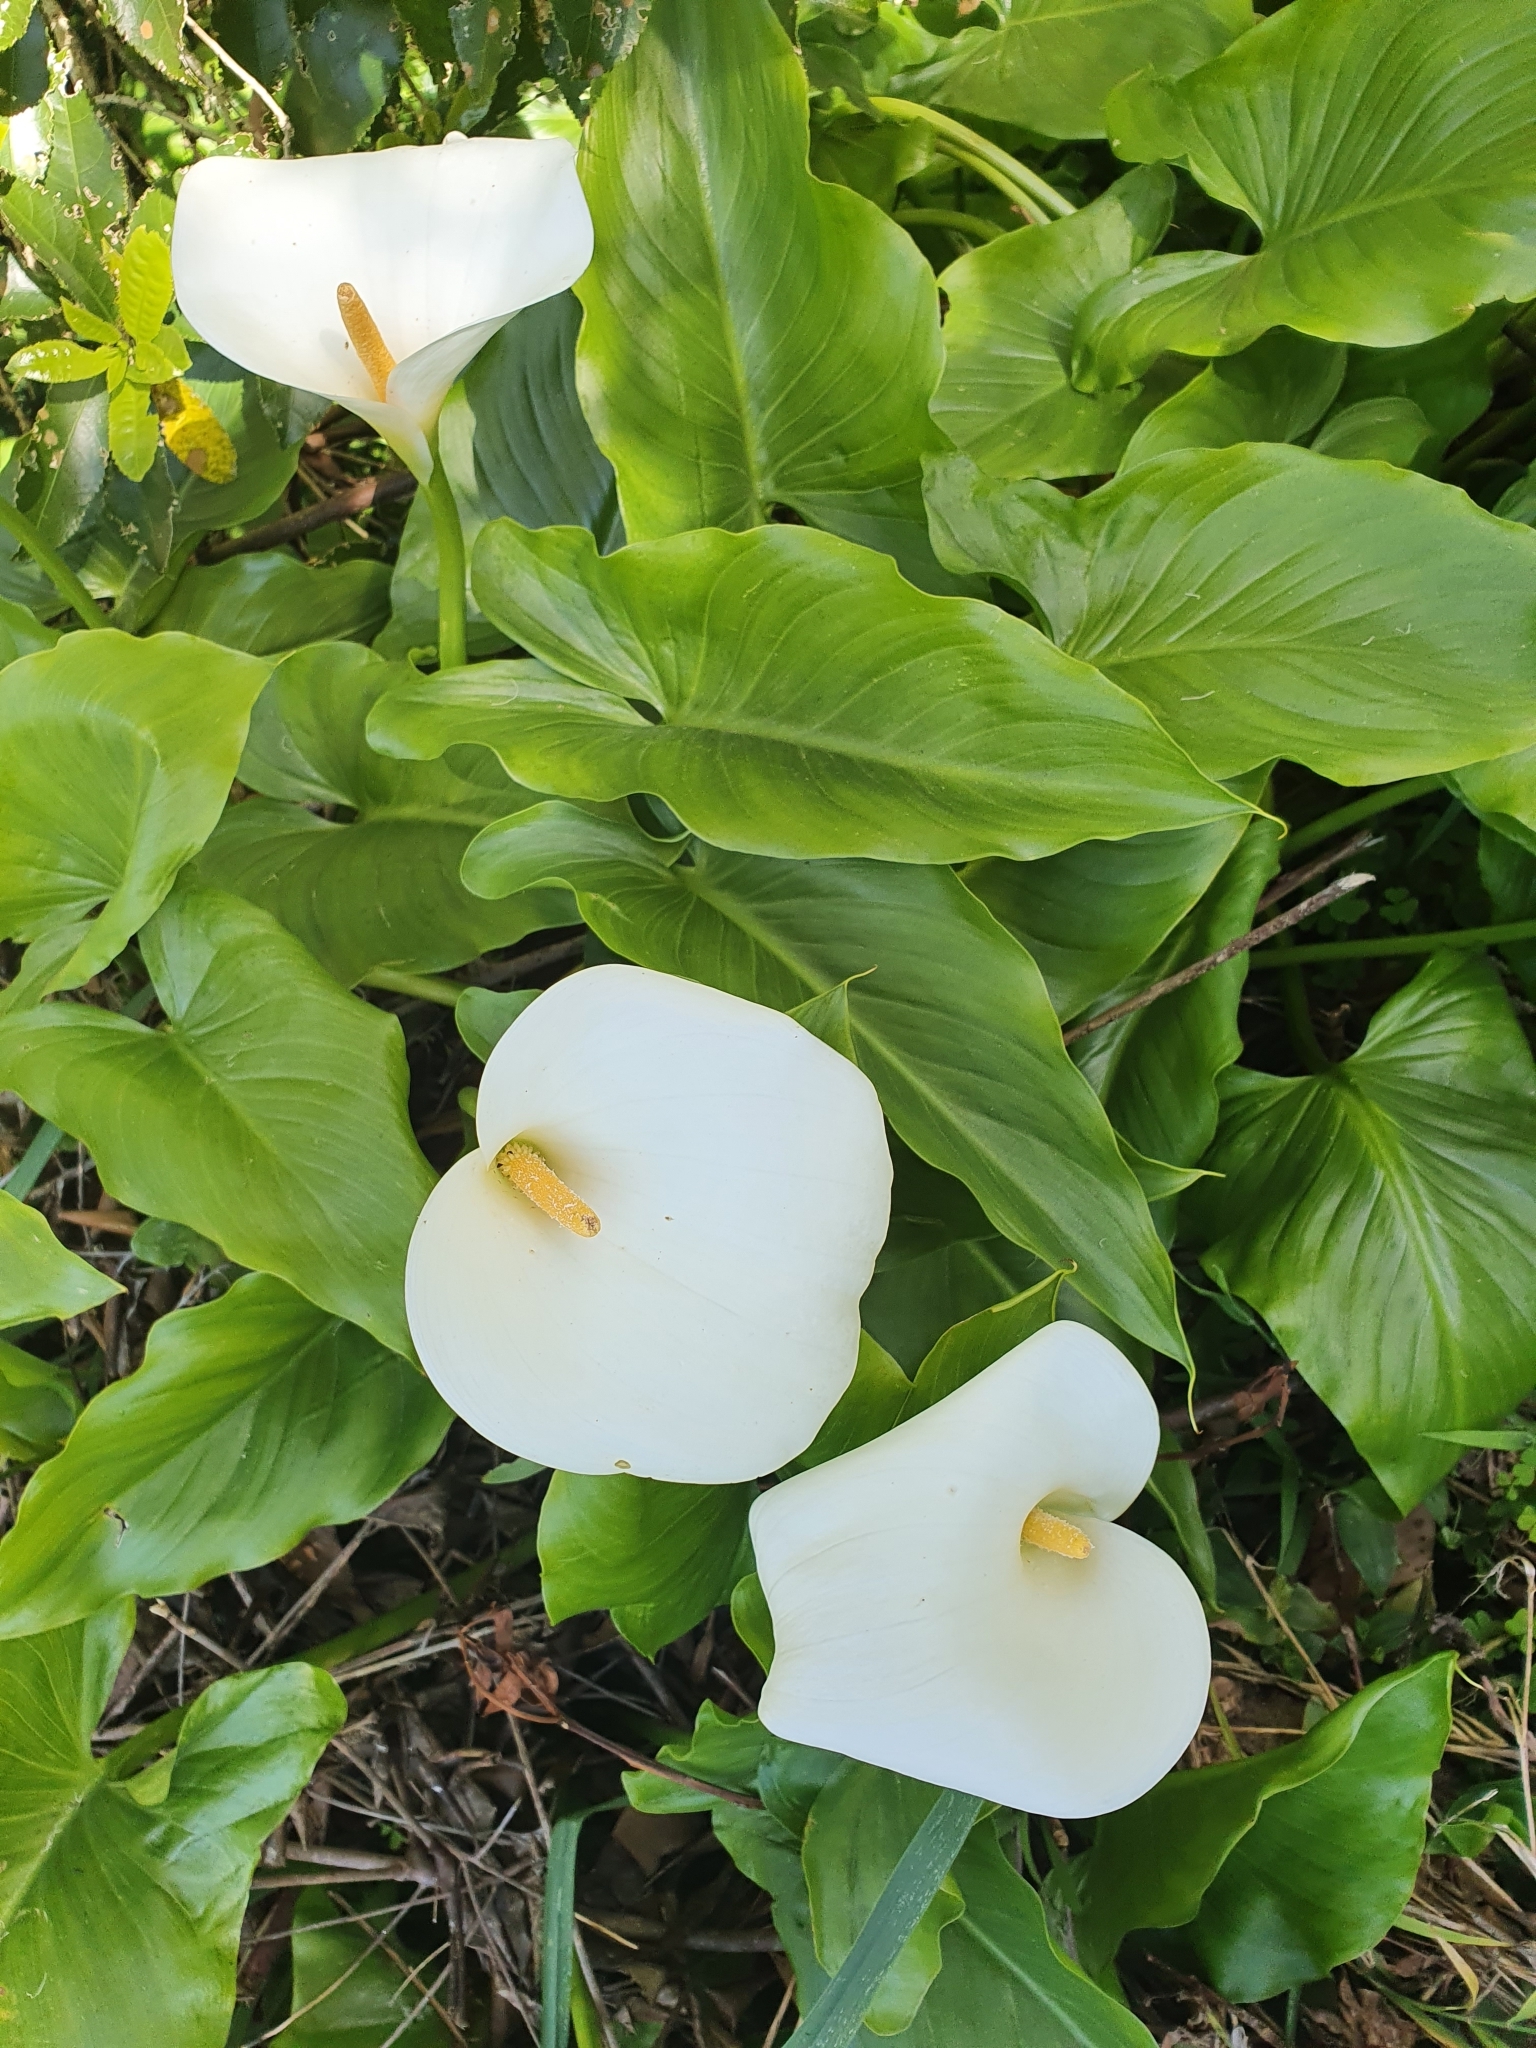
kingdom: Plantae
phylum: Tracheophyta
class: Liliopsida
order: Alismatales
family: Araceae
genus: Zantedeschia
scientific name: Zantedeschia aethiopica
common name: Altar-lily
